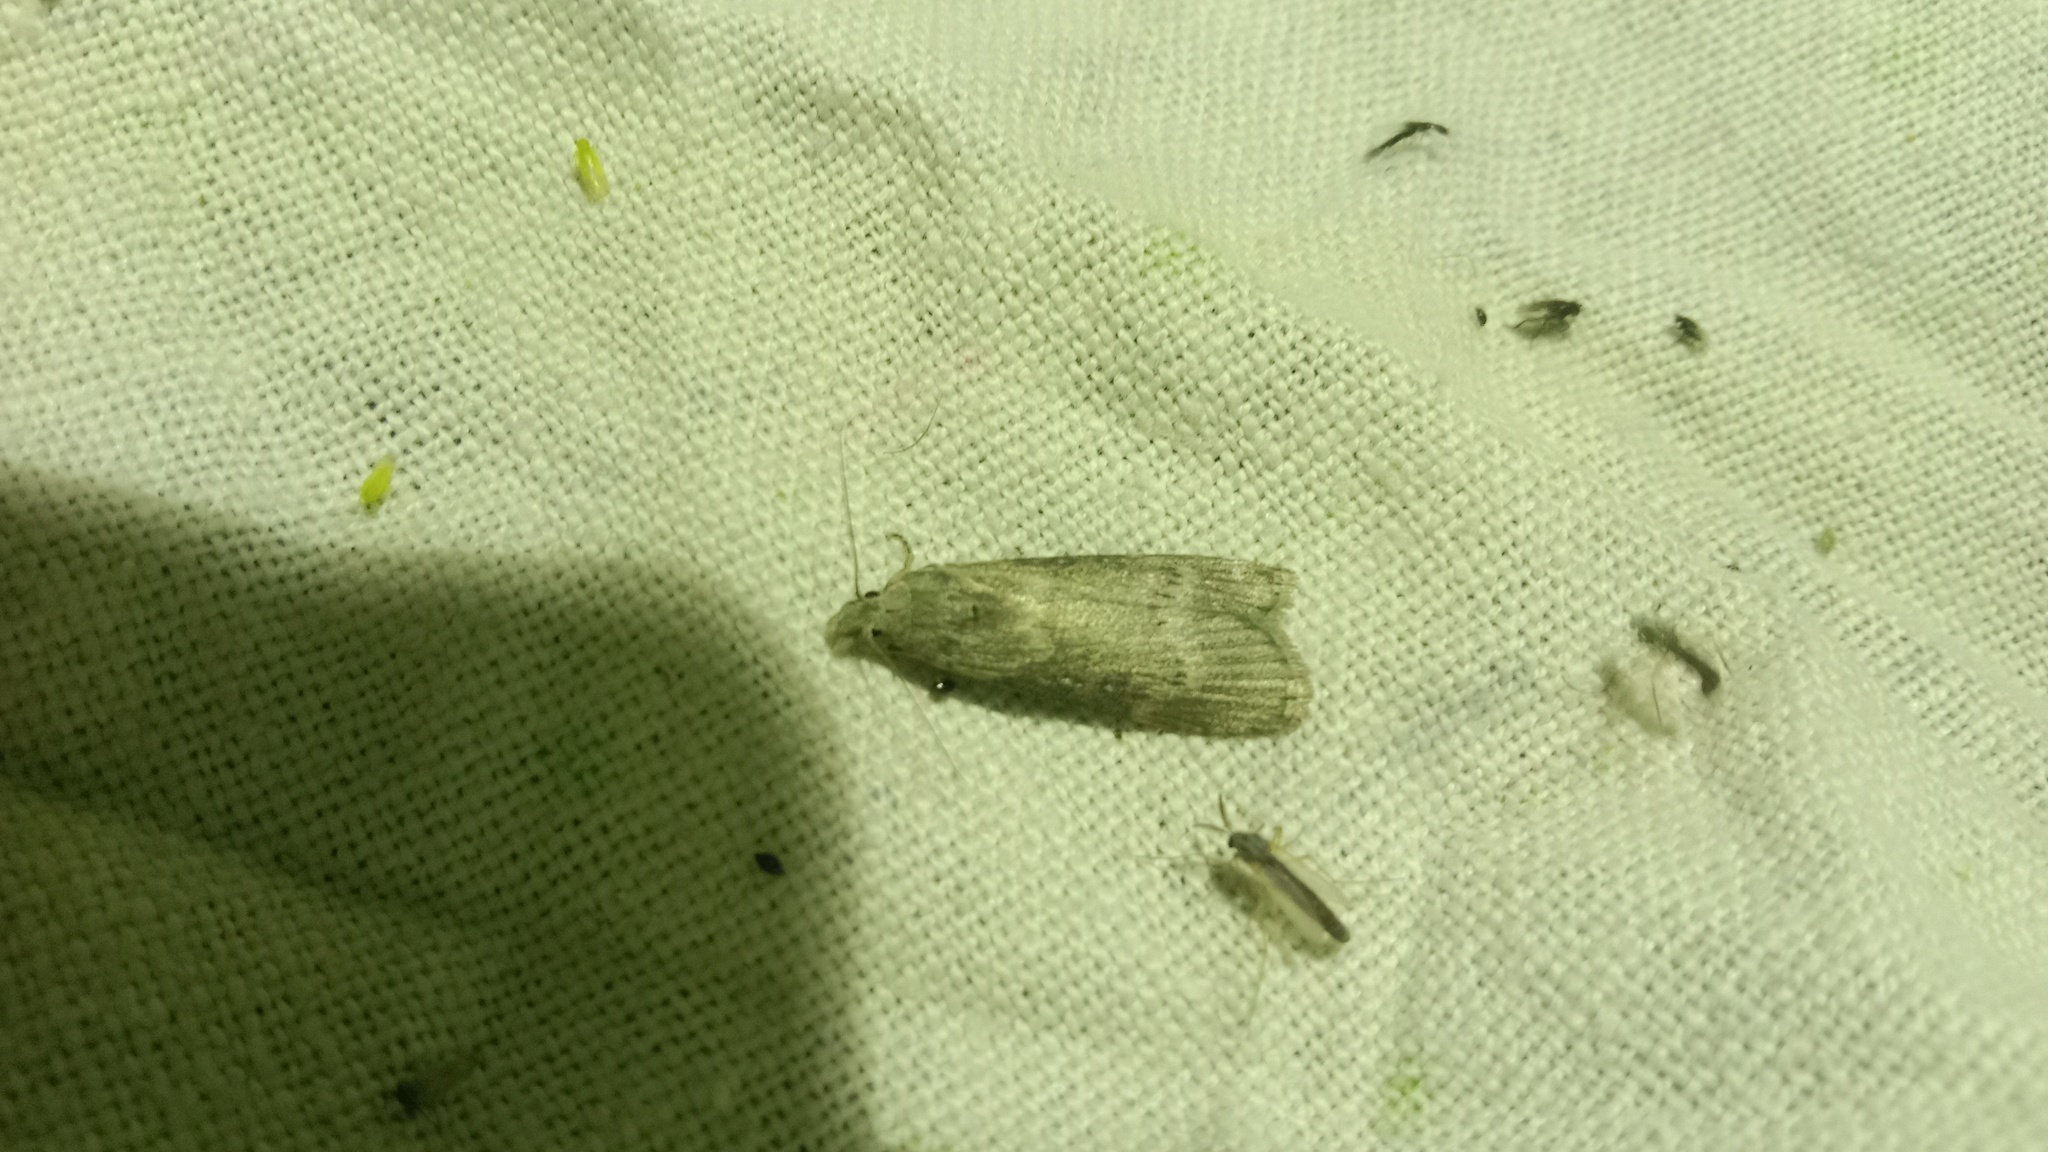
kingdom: Animalia
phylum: Arthropoda
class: Insecta
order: Lepidoptera
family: Pyralidae
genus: Lamoria
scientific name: Lamoria anella
